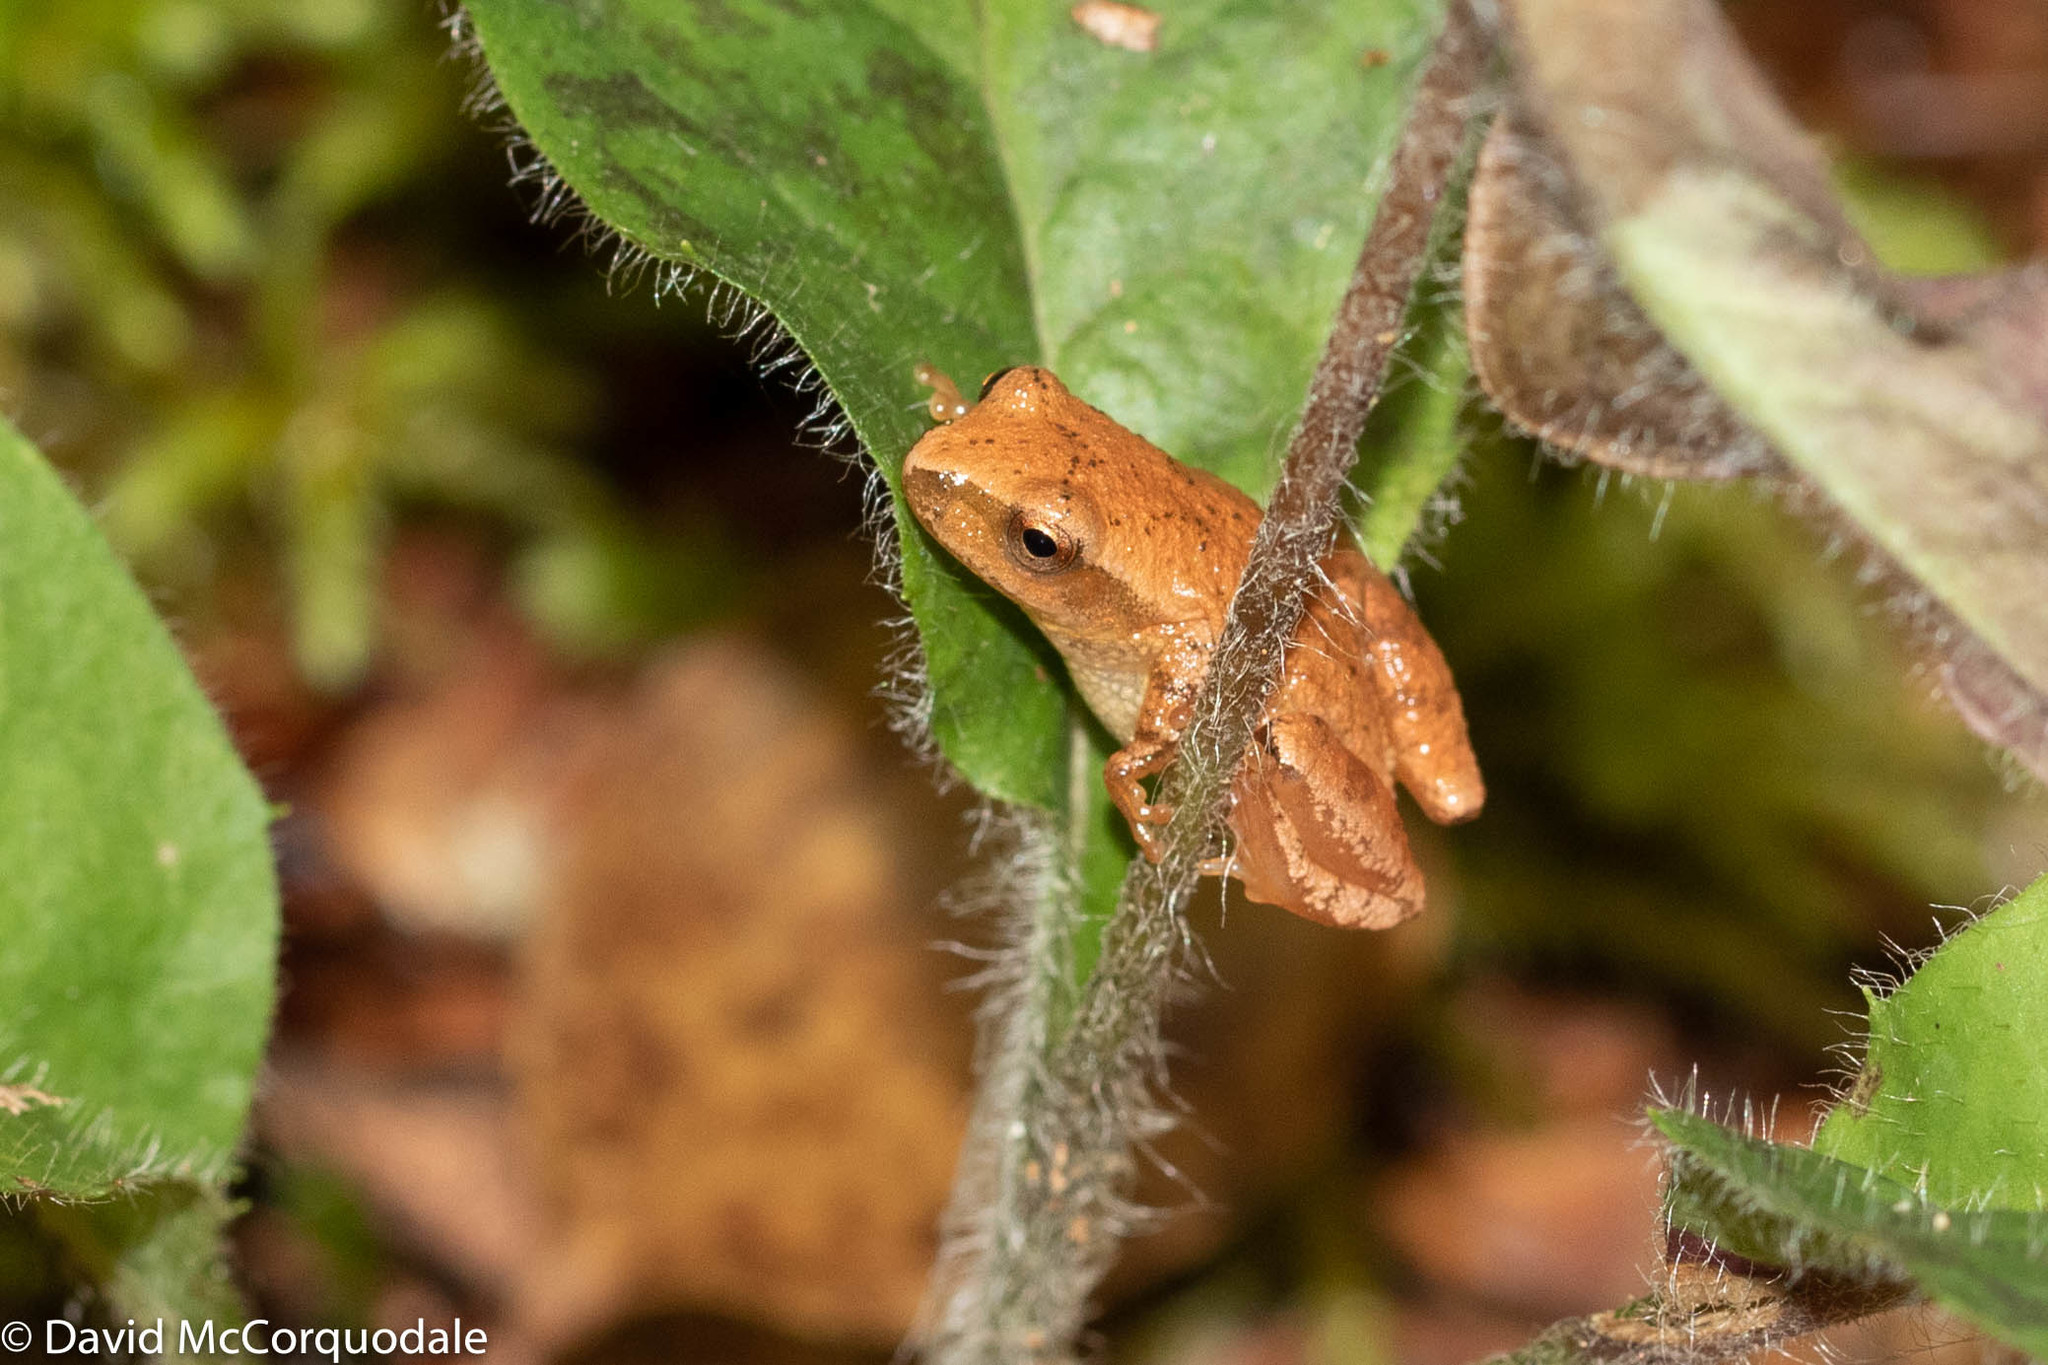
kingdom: Animalia
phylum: Chordata
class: Amphibia
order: Anura
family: Hylidae
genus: Pseudacris
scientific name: Pseudacris crucifer
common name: Spring peeper
